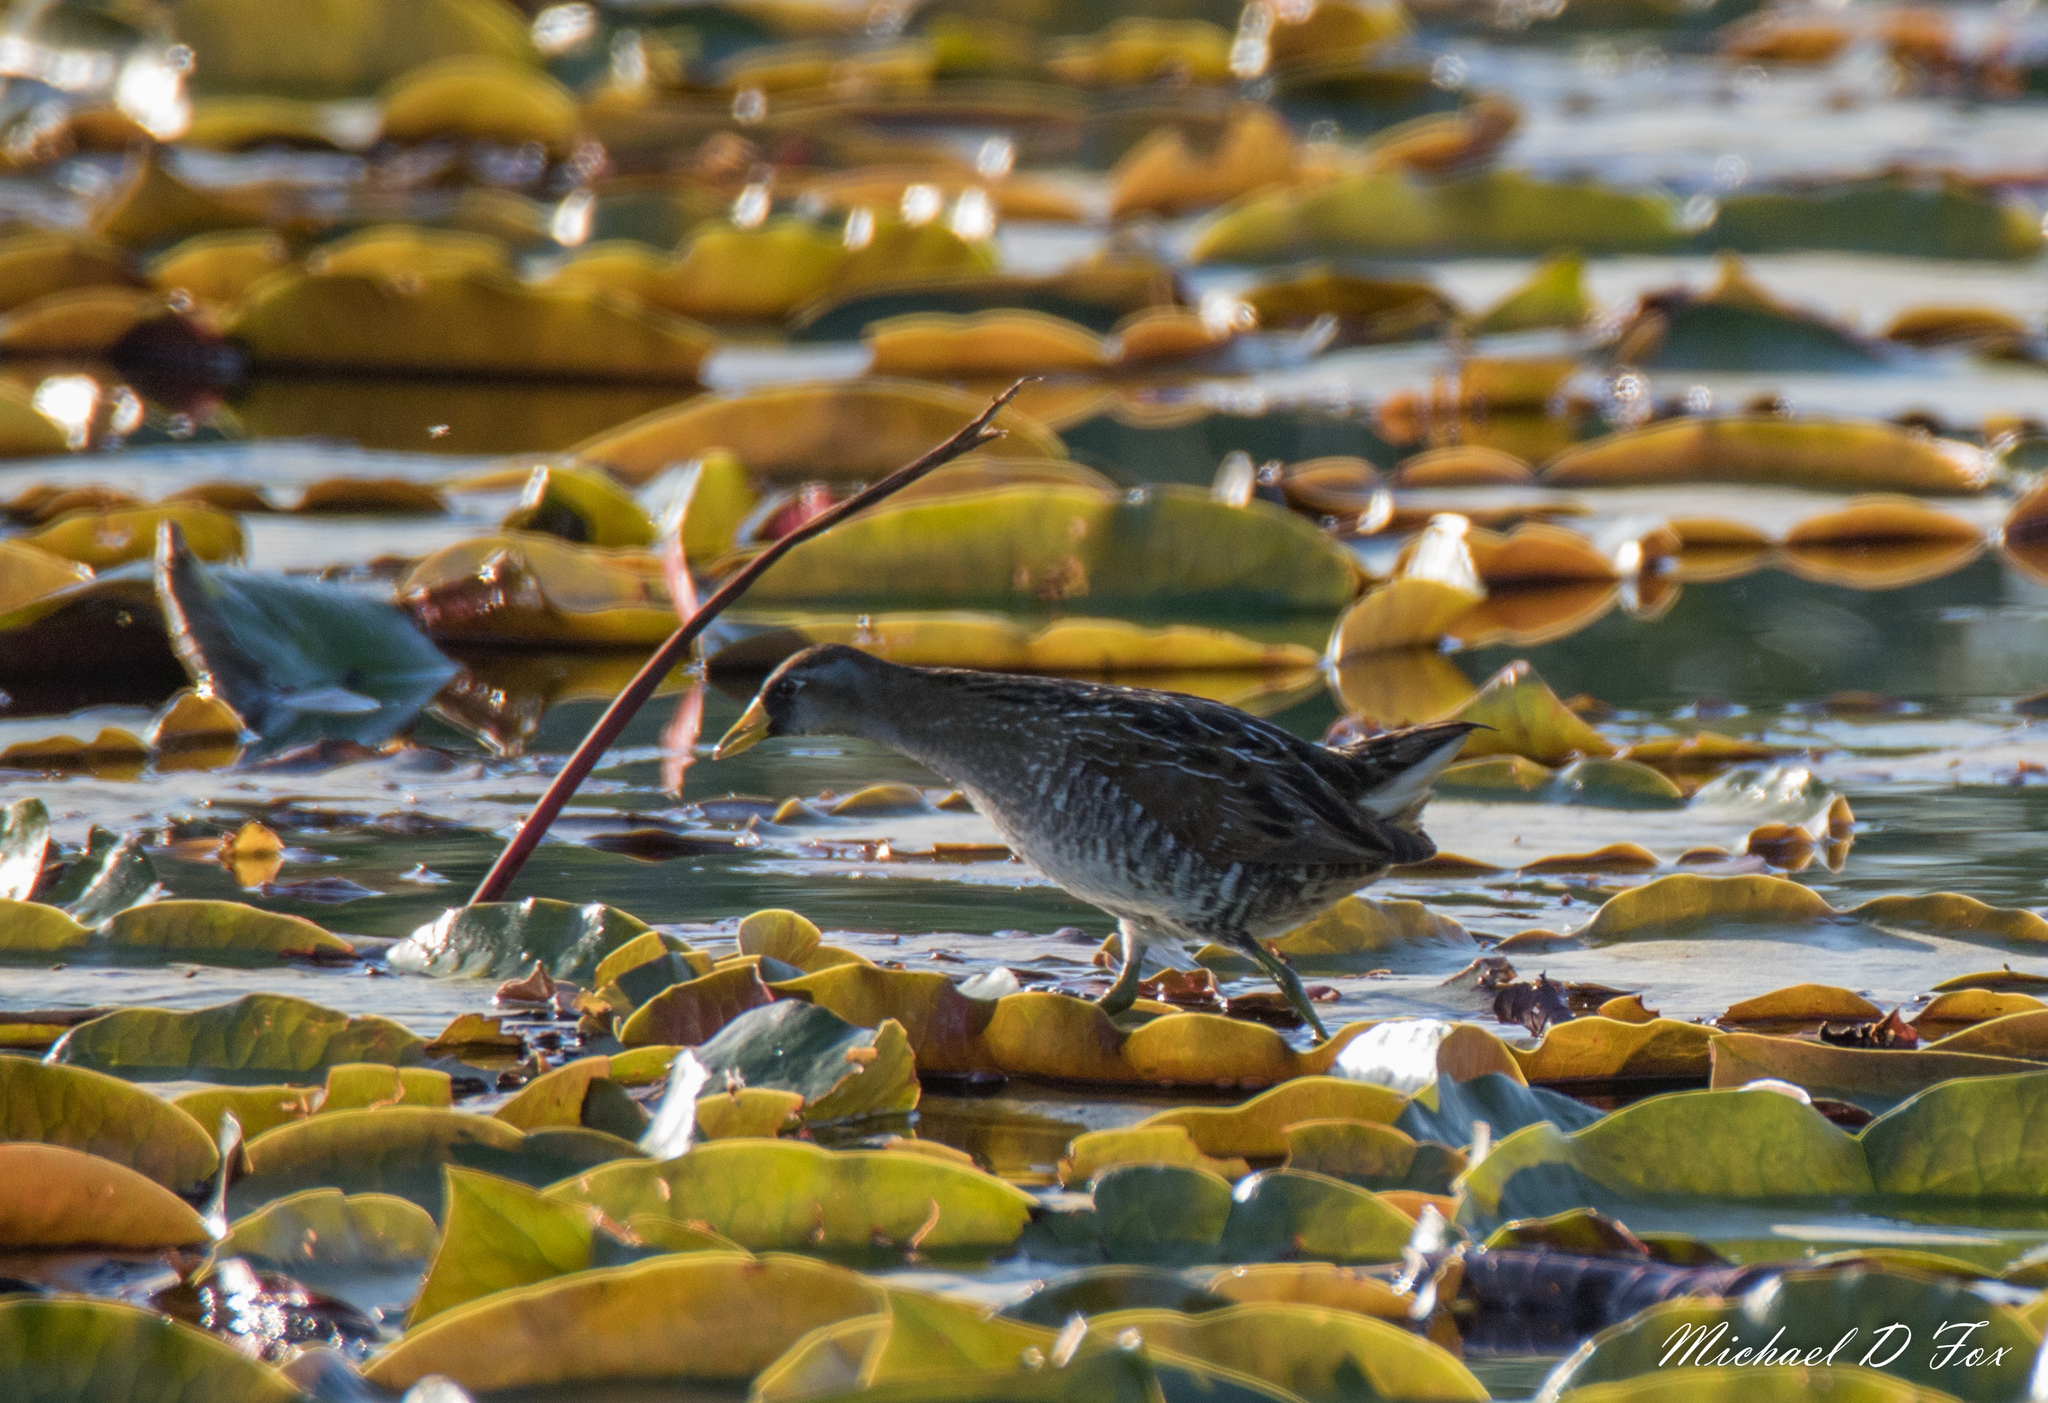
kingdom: Animalia
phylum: Chordata
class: Aves
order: Gruiformes
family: Rallidae
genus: Porzana
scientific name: Porzana carolina
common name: Sora
